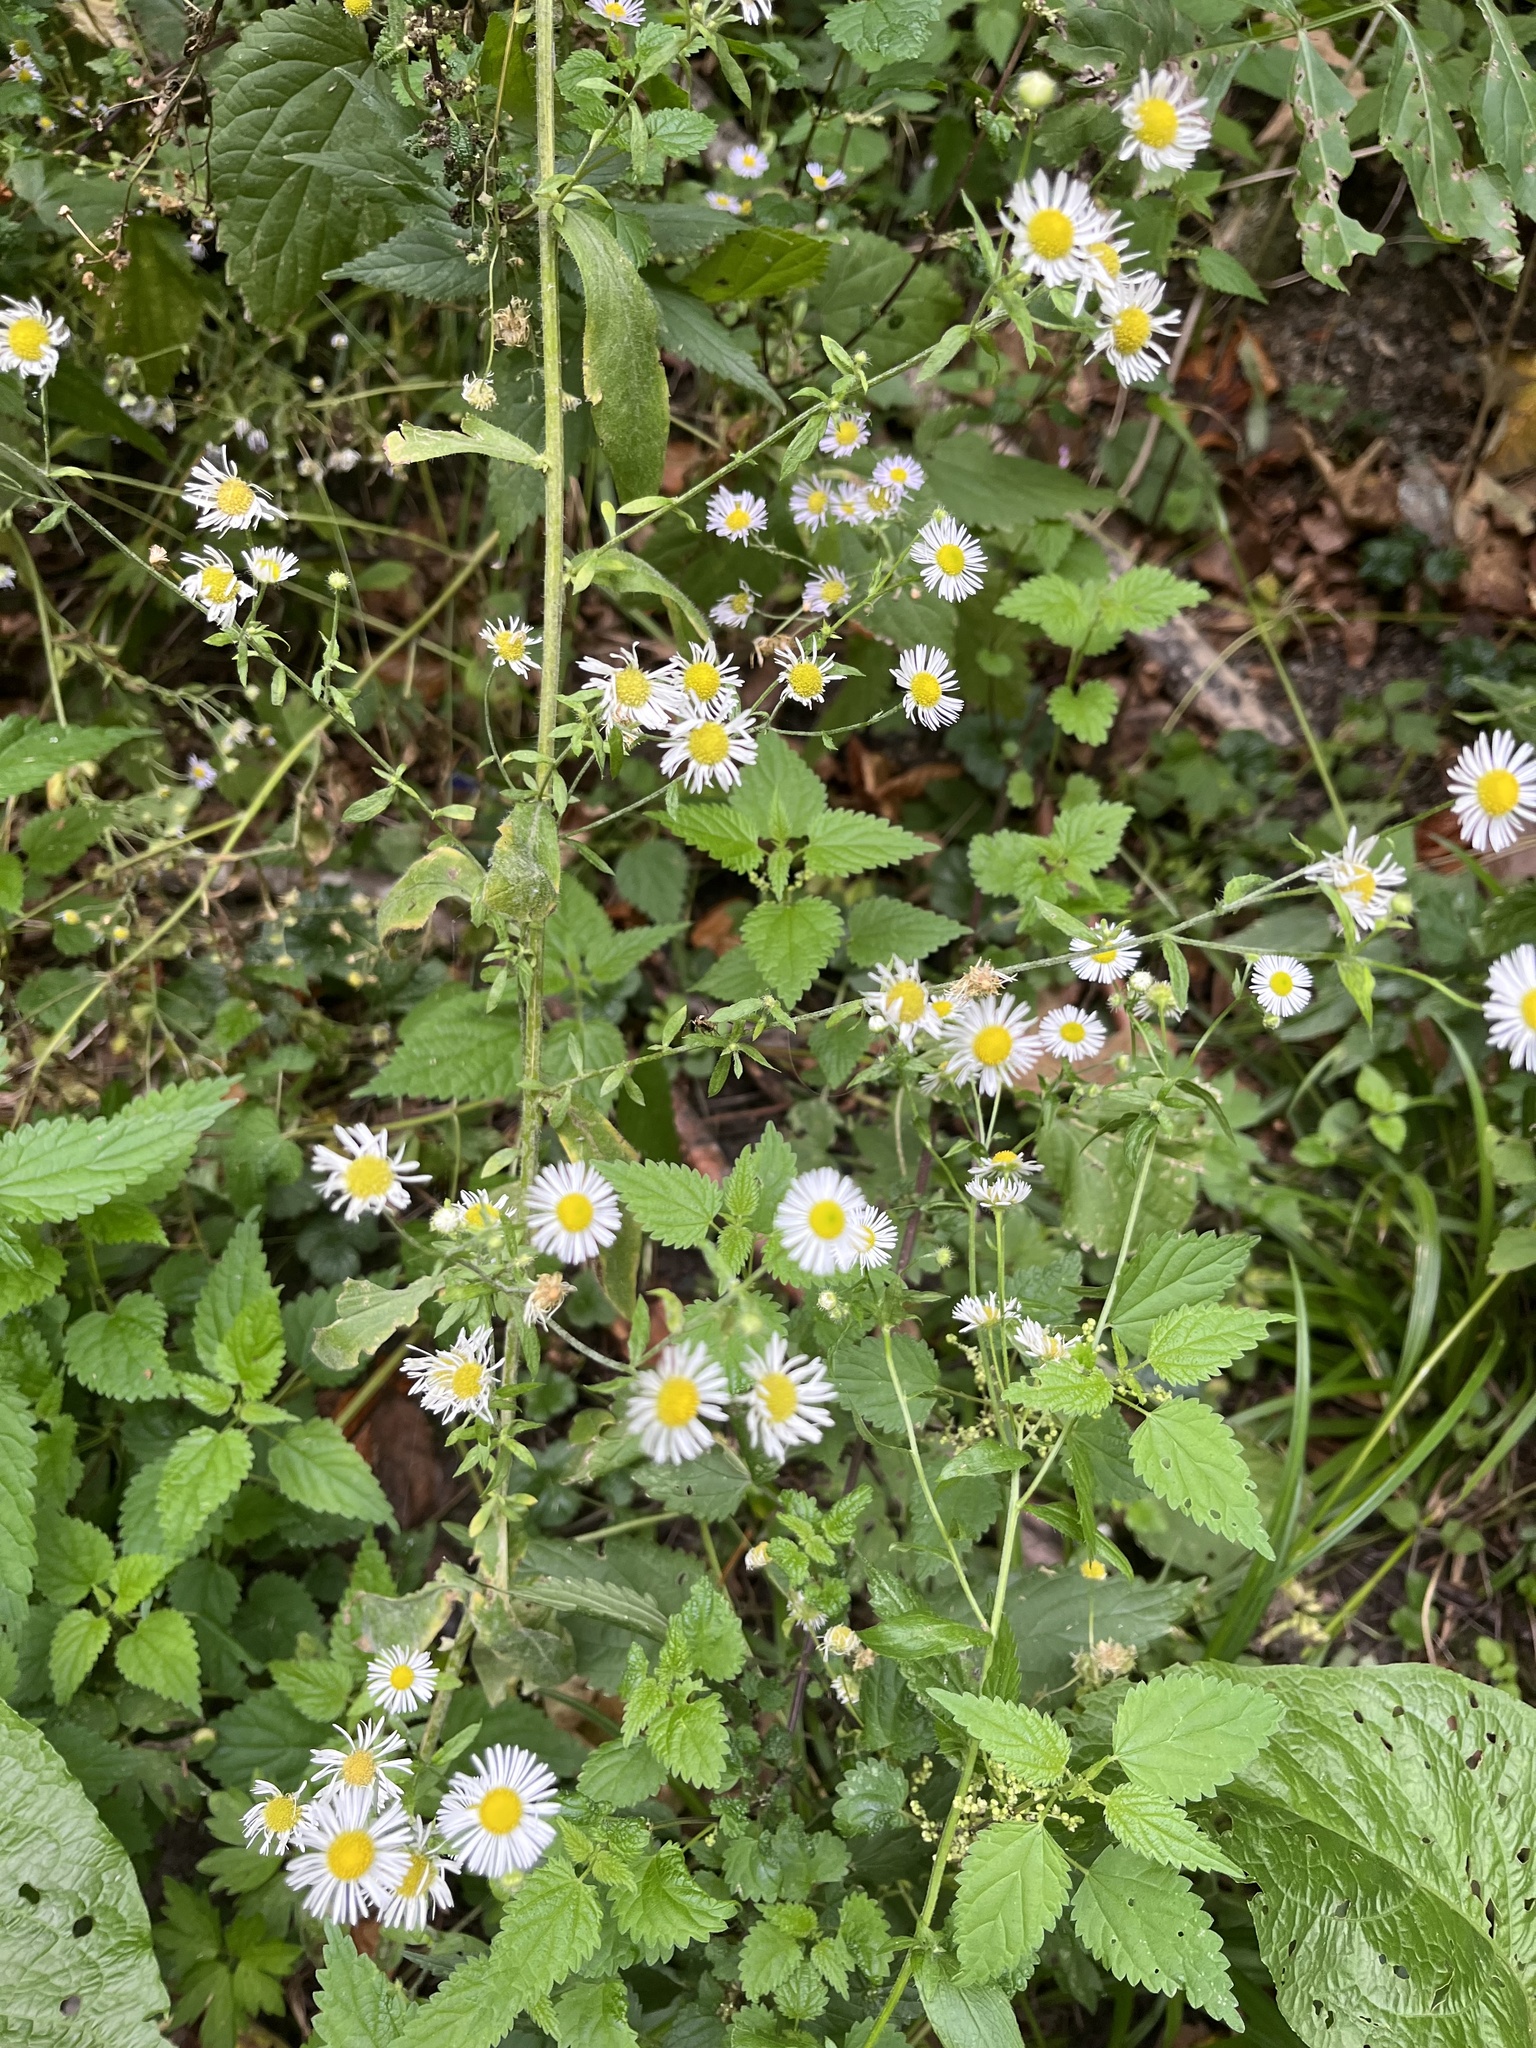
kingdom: Plantae
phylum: Tracheophyta
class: Magnoliopsida
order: Asterales
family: Asteraceae
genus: Erigeron
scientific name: Erigeron annuus
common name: Tall fleabane
